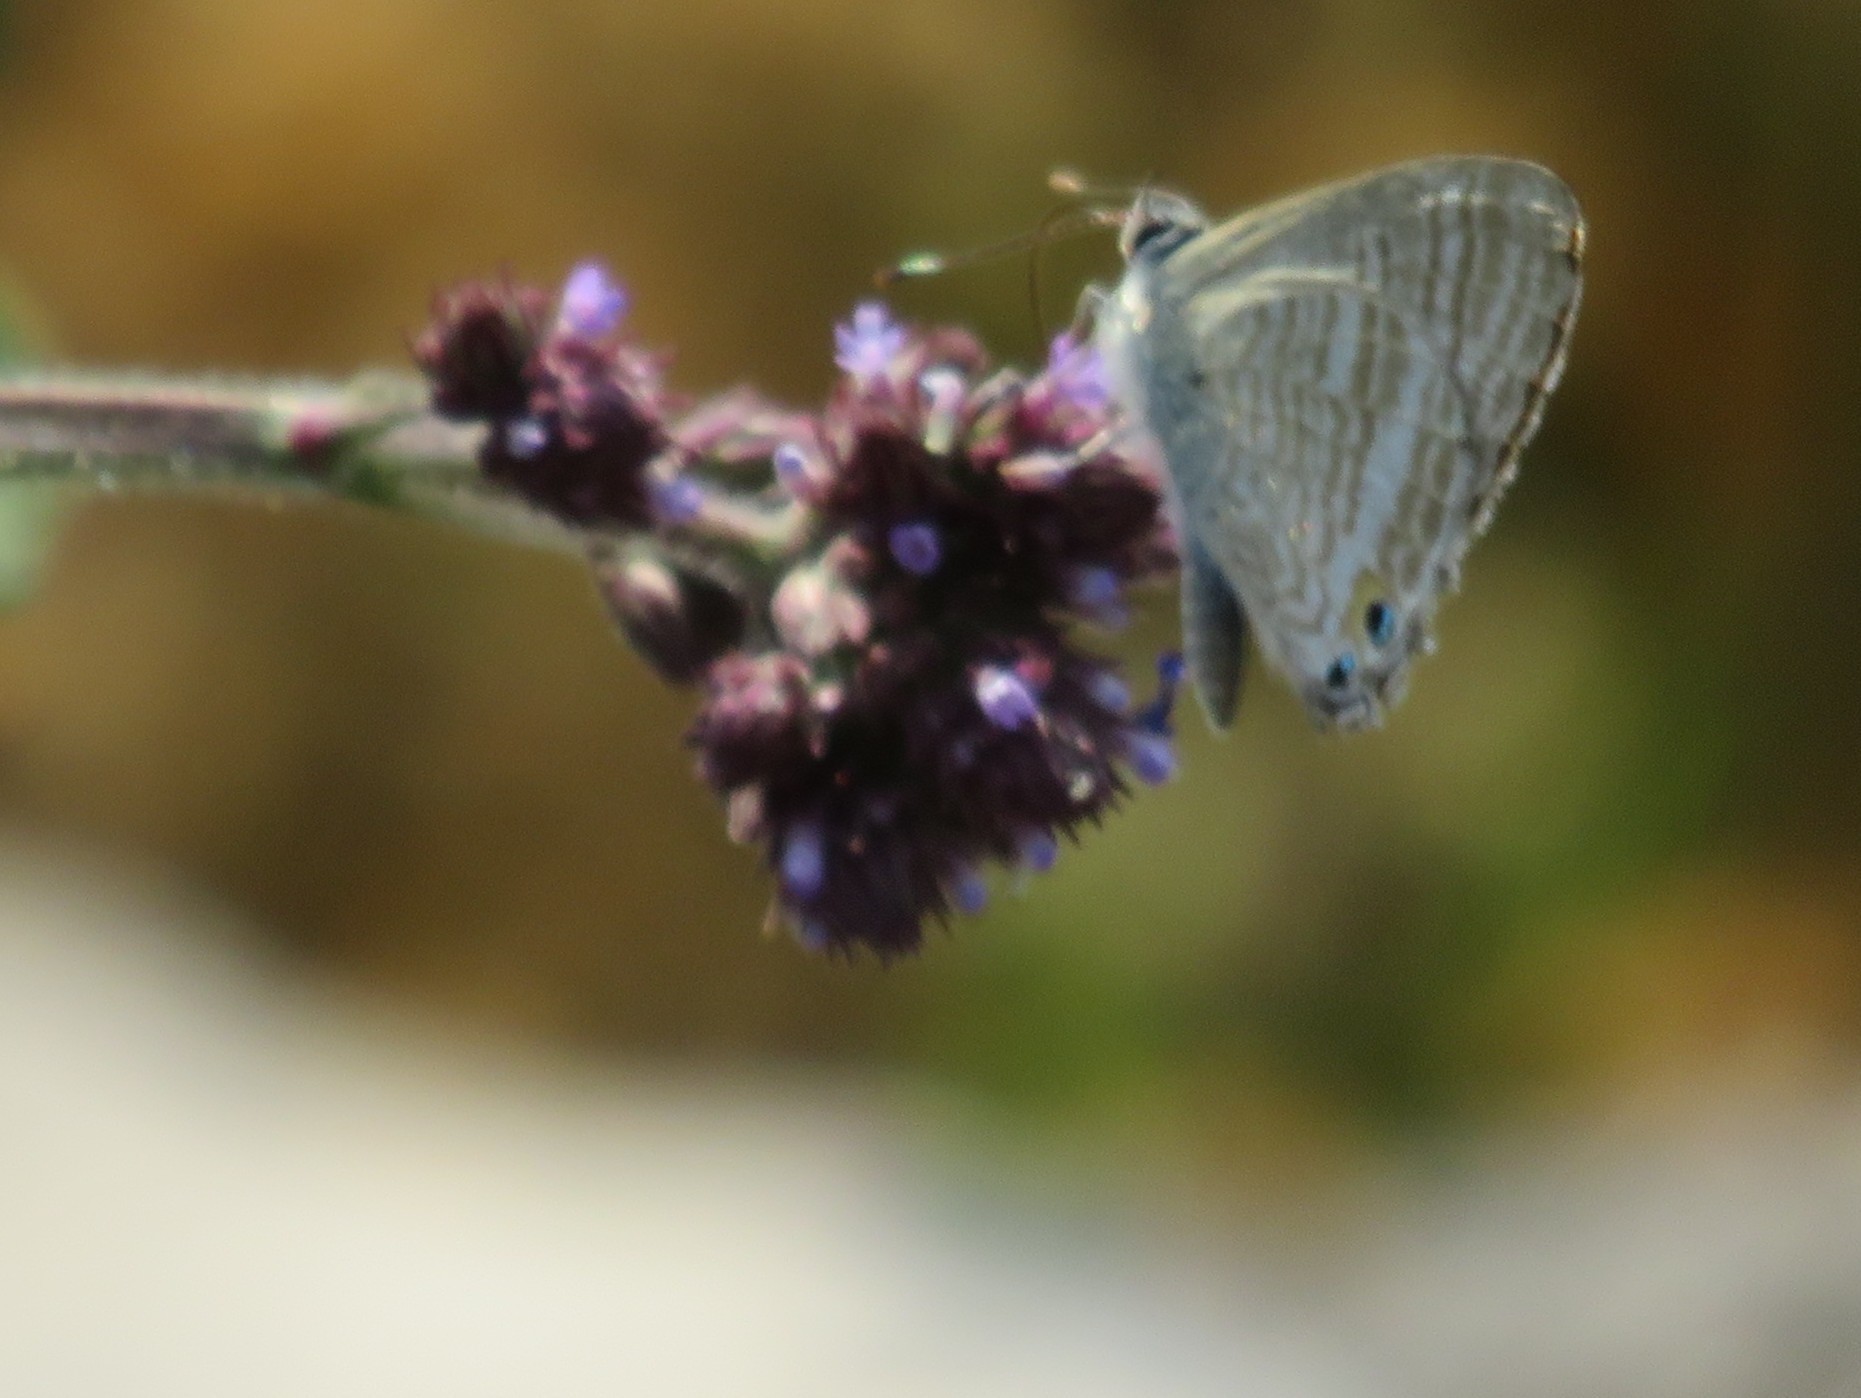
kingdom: Animalia
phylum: Arthropoda
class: Insecta
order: Lepidoptera
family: Lycaenidae
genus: Lampides
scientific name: Lampides boeticus
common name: Long-tailed blue
